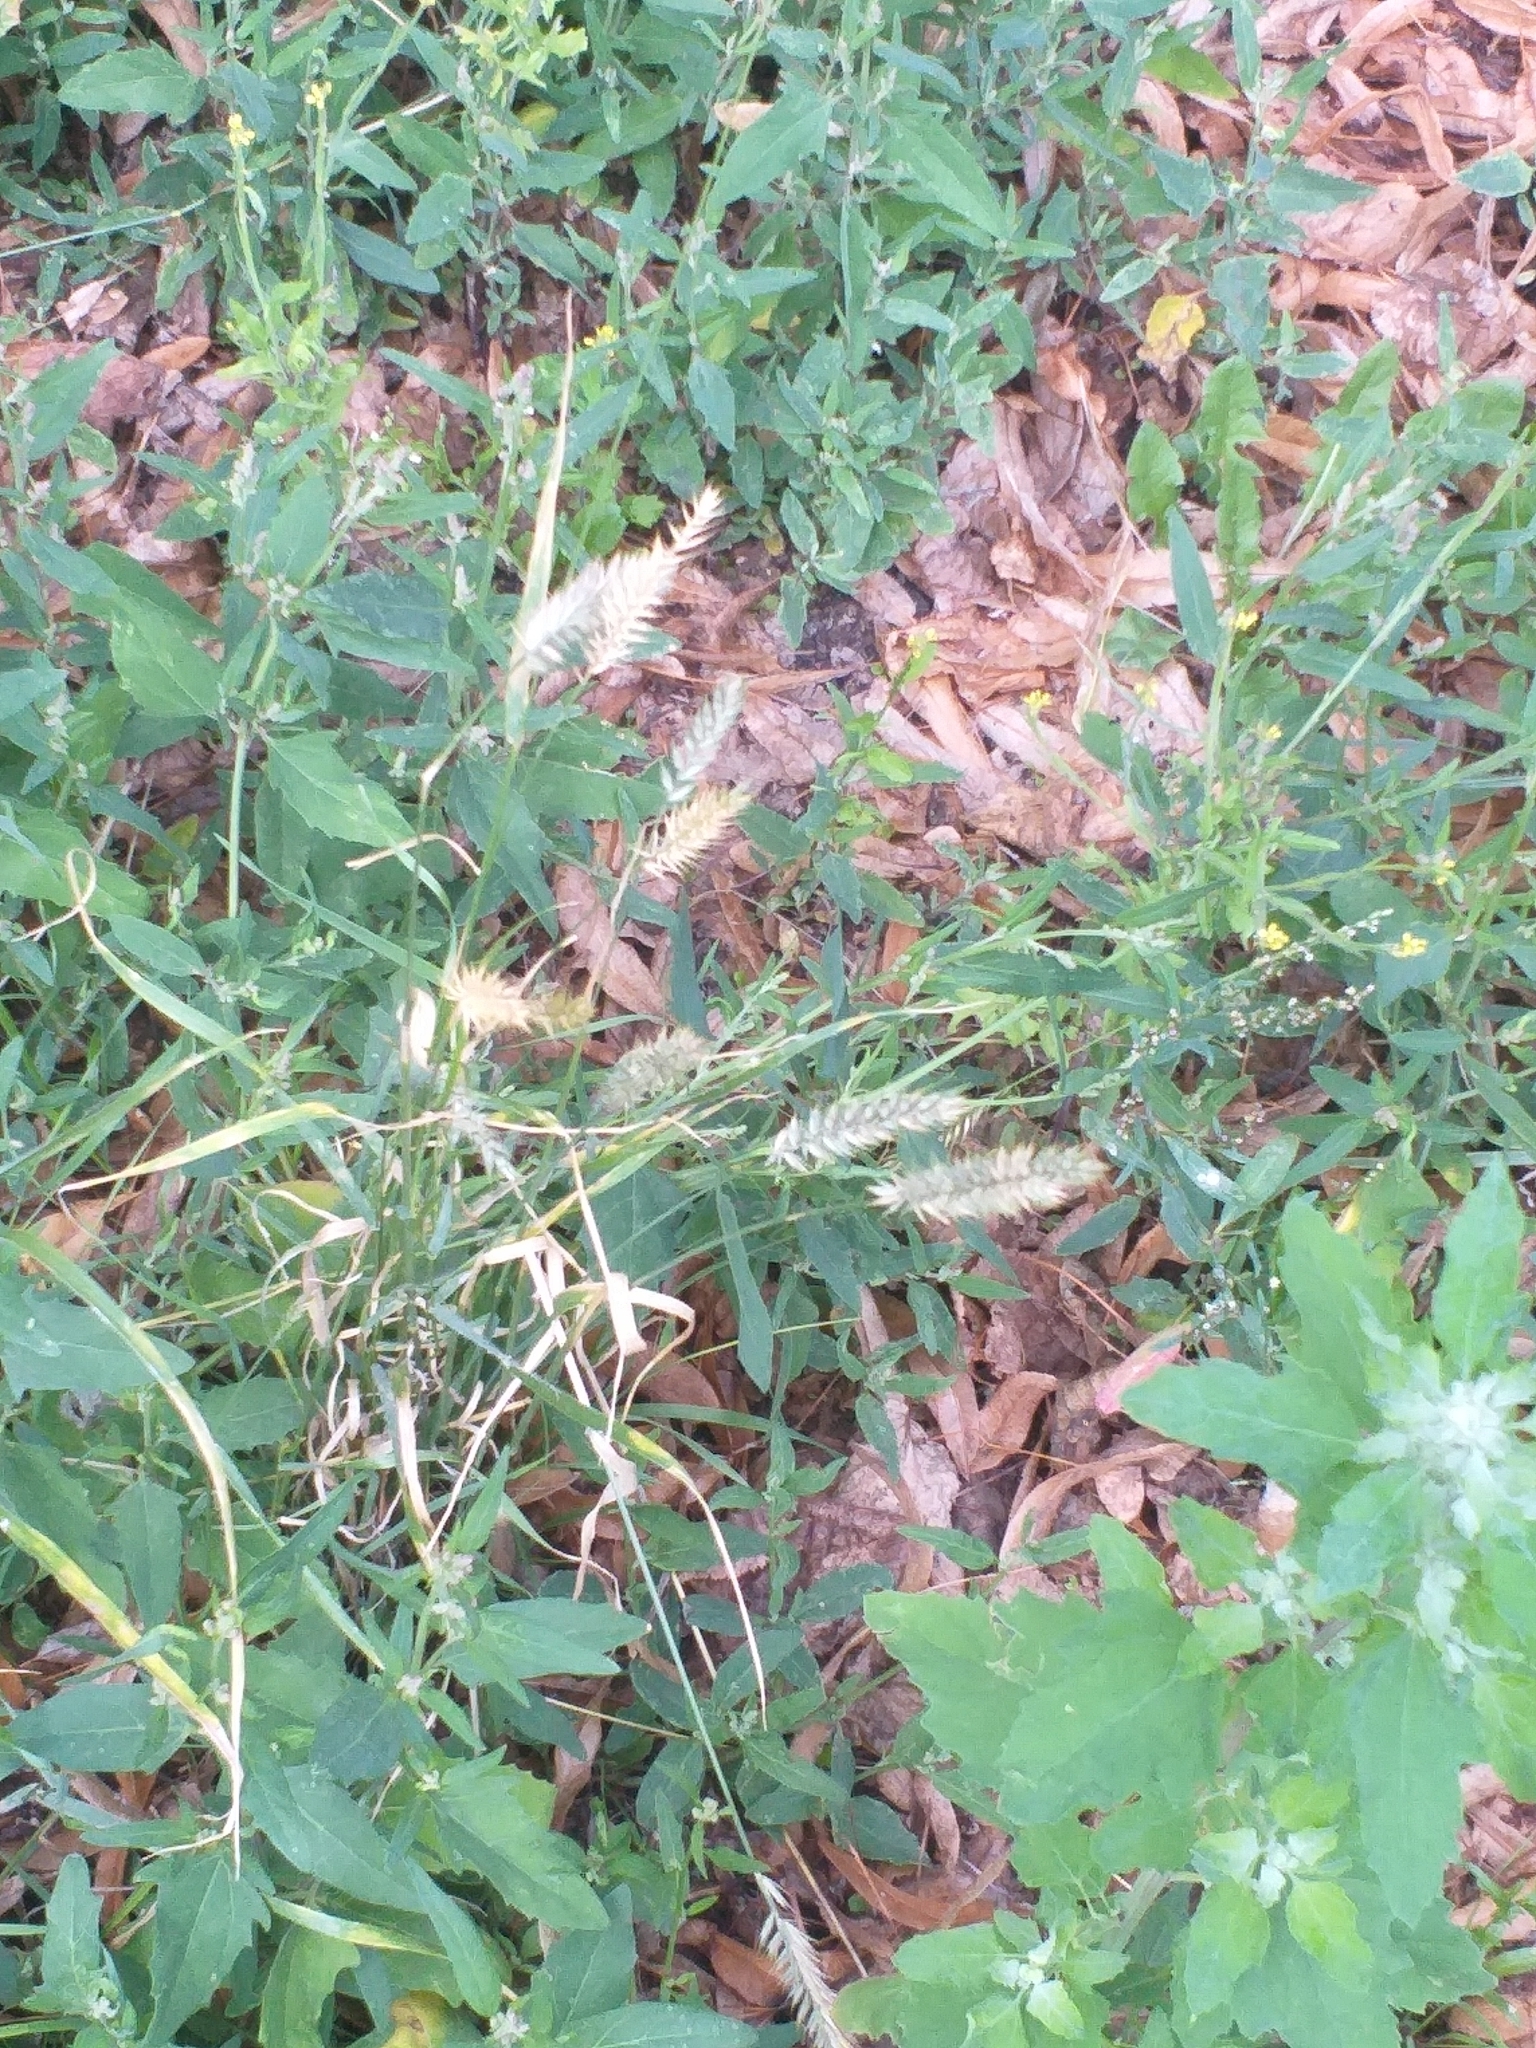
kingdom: Plantae
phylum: Tracheophyta
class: Liliopsida
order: Poales
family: Poaceae
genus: Agropyron
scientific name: Agropyron cristatum
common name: Crested wheatgrass
